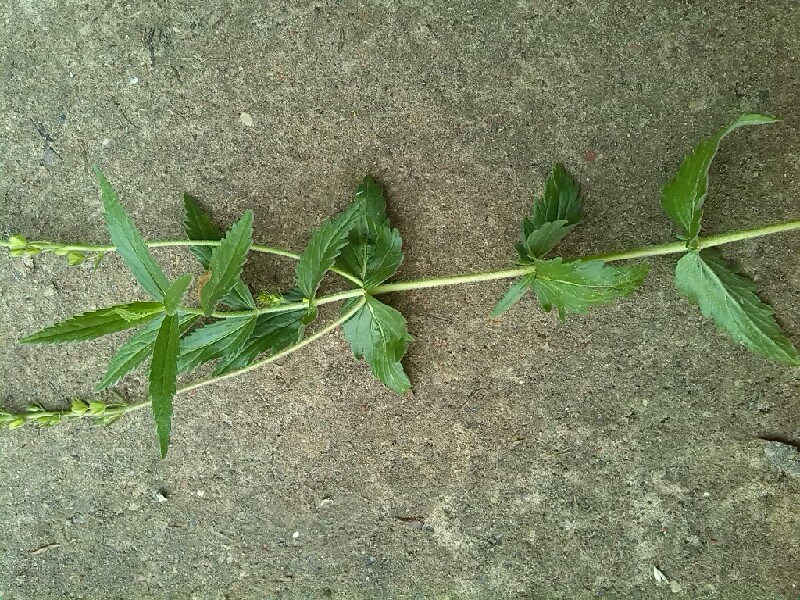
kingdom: Plantae
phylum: Tracheophyta
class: Magnoliopsida
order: Lamiales
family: Plantaginaceae
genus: Veronica
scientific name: Veronica teucrium
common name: Large speedwell
